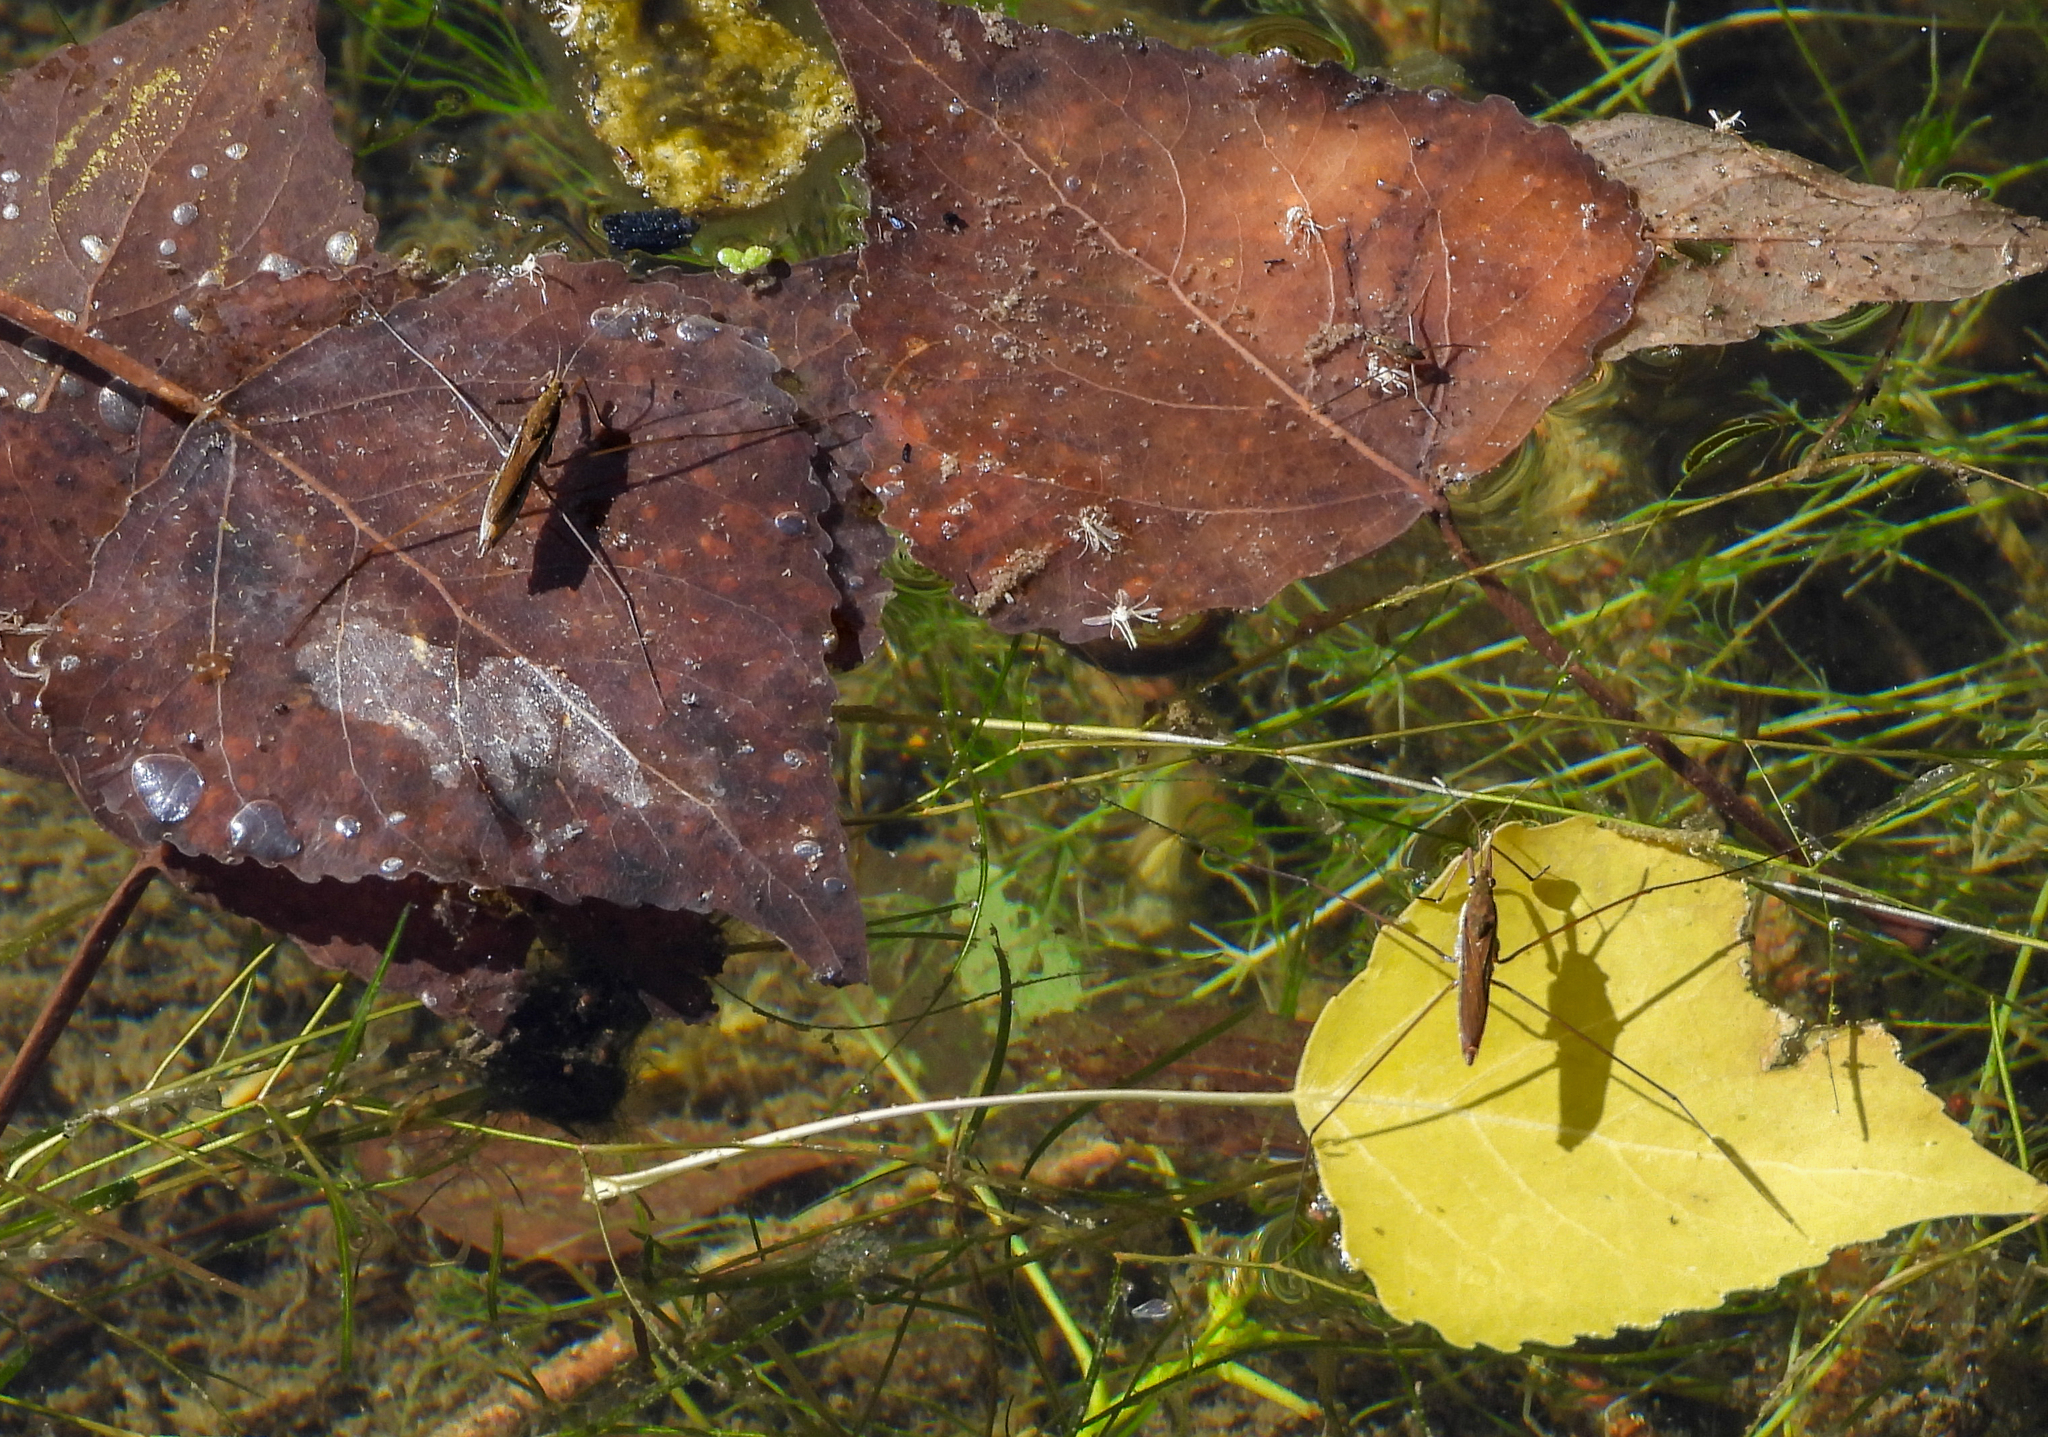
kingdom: Animalia
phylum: Arthropoda
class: Insecta
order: Hemiptera
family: Gerridae
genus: Limnoporus
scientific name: Limnoporus notabilis
